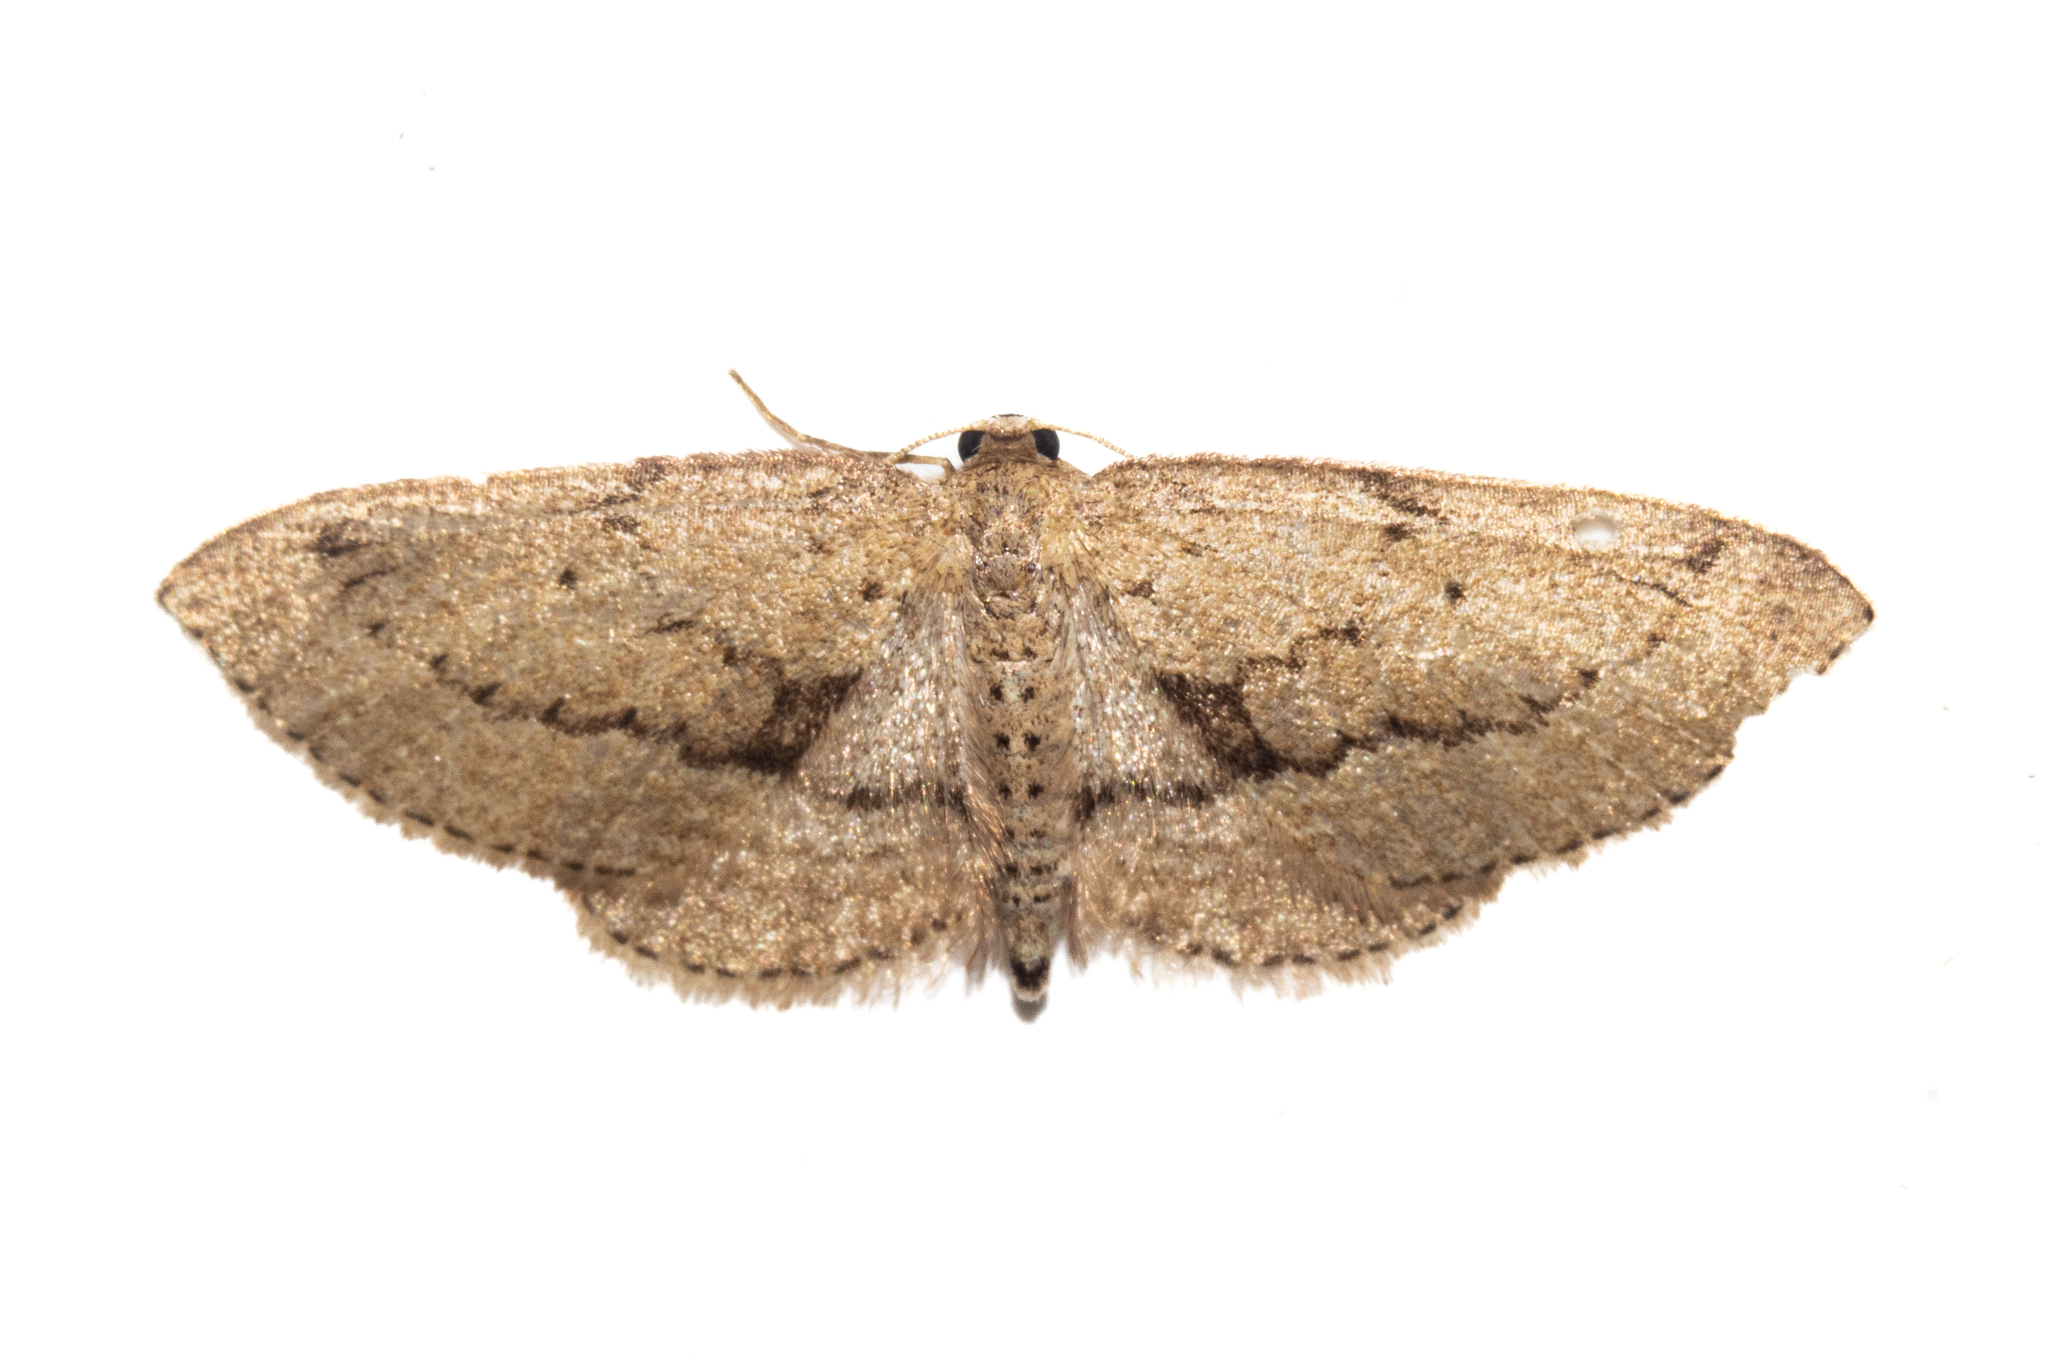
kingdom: Animalia
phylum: Arthropoda
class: Insecta
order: Lepidoptera
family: Geometridae
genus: Poecilasthena
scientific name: Poecilasthena schistaria
